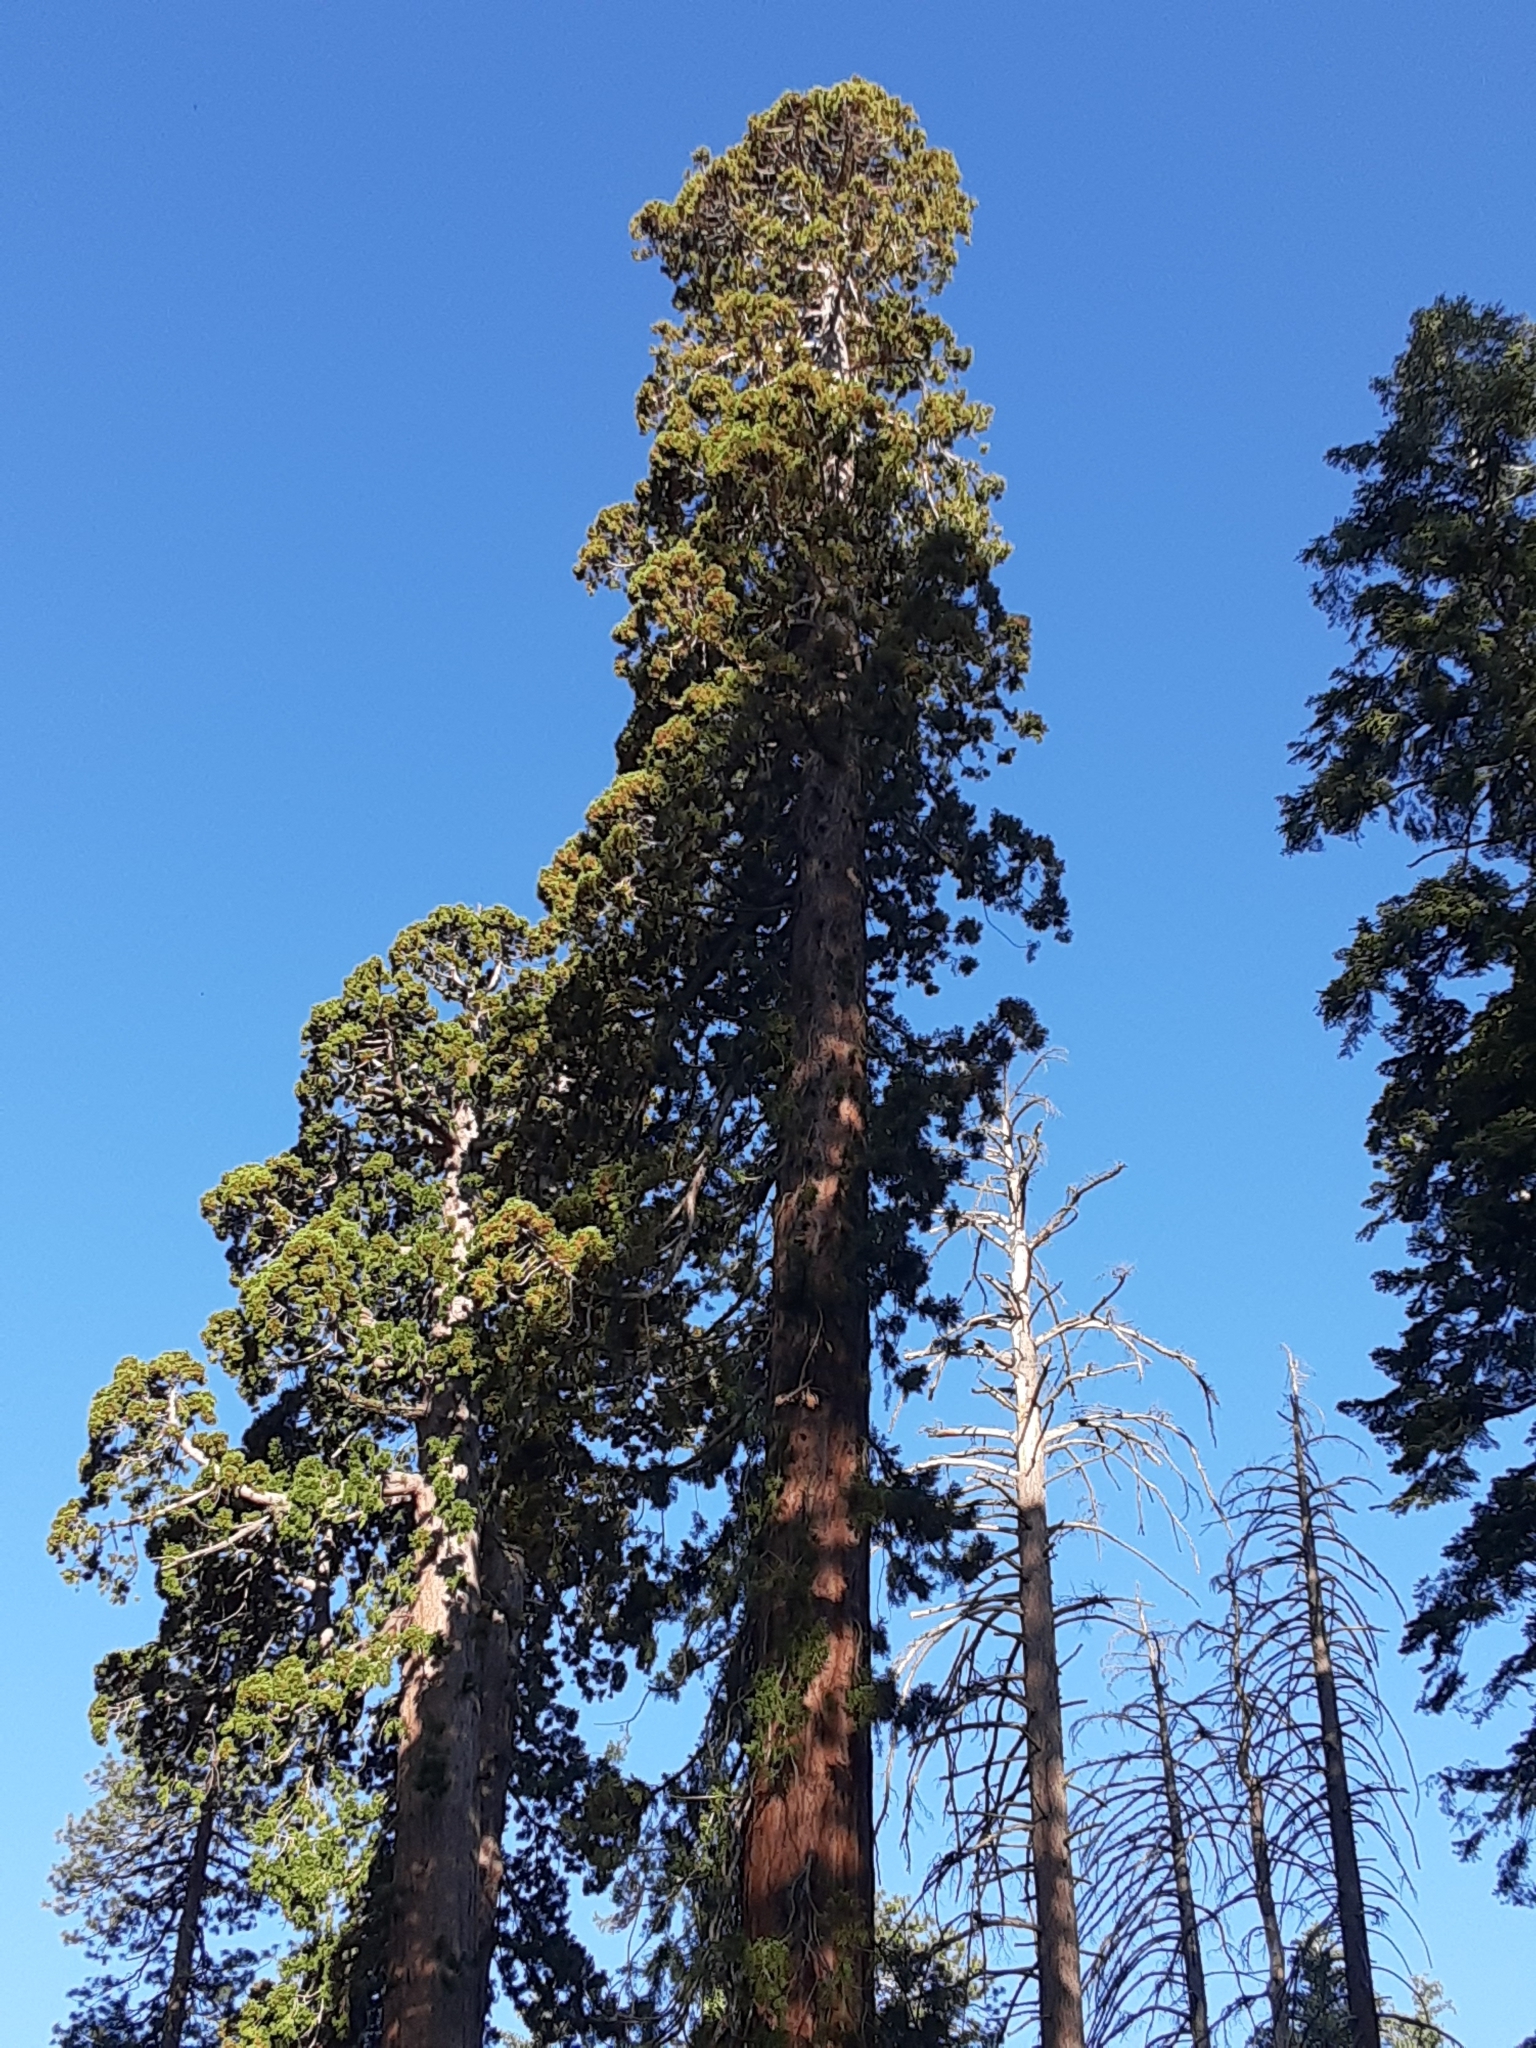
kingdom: Plantae
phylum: Tracheophyta
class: Pinopsida
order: Pinales
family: Cupressaceae
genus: Sequoiadendron
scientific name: Sequoiadendron giganteum
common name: Wellingtonia
